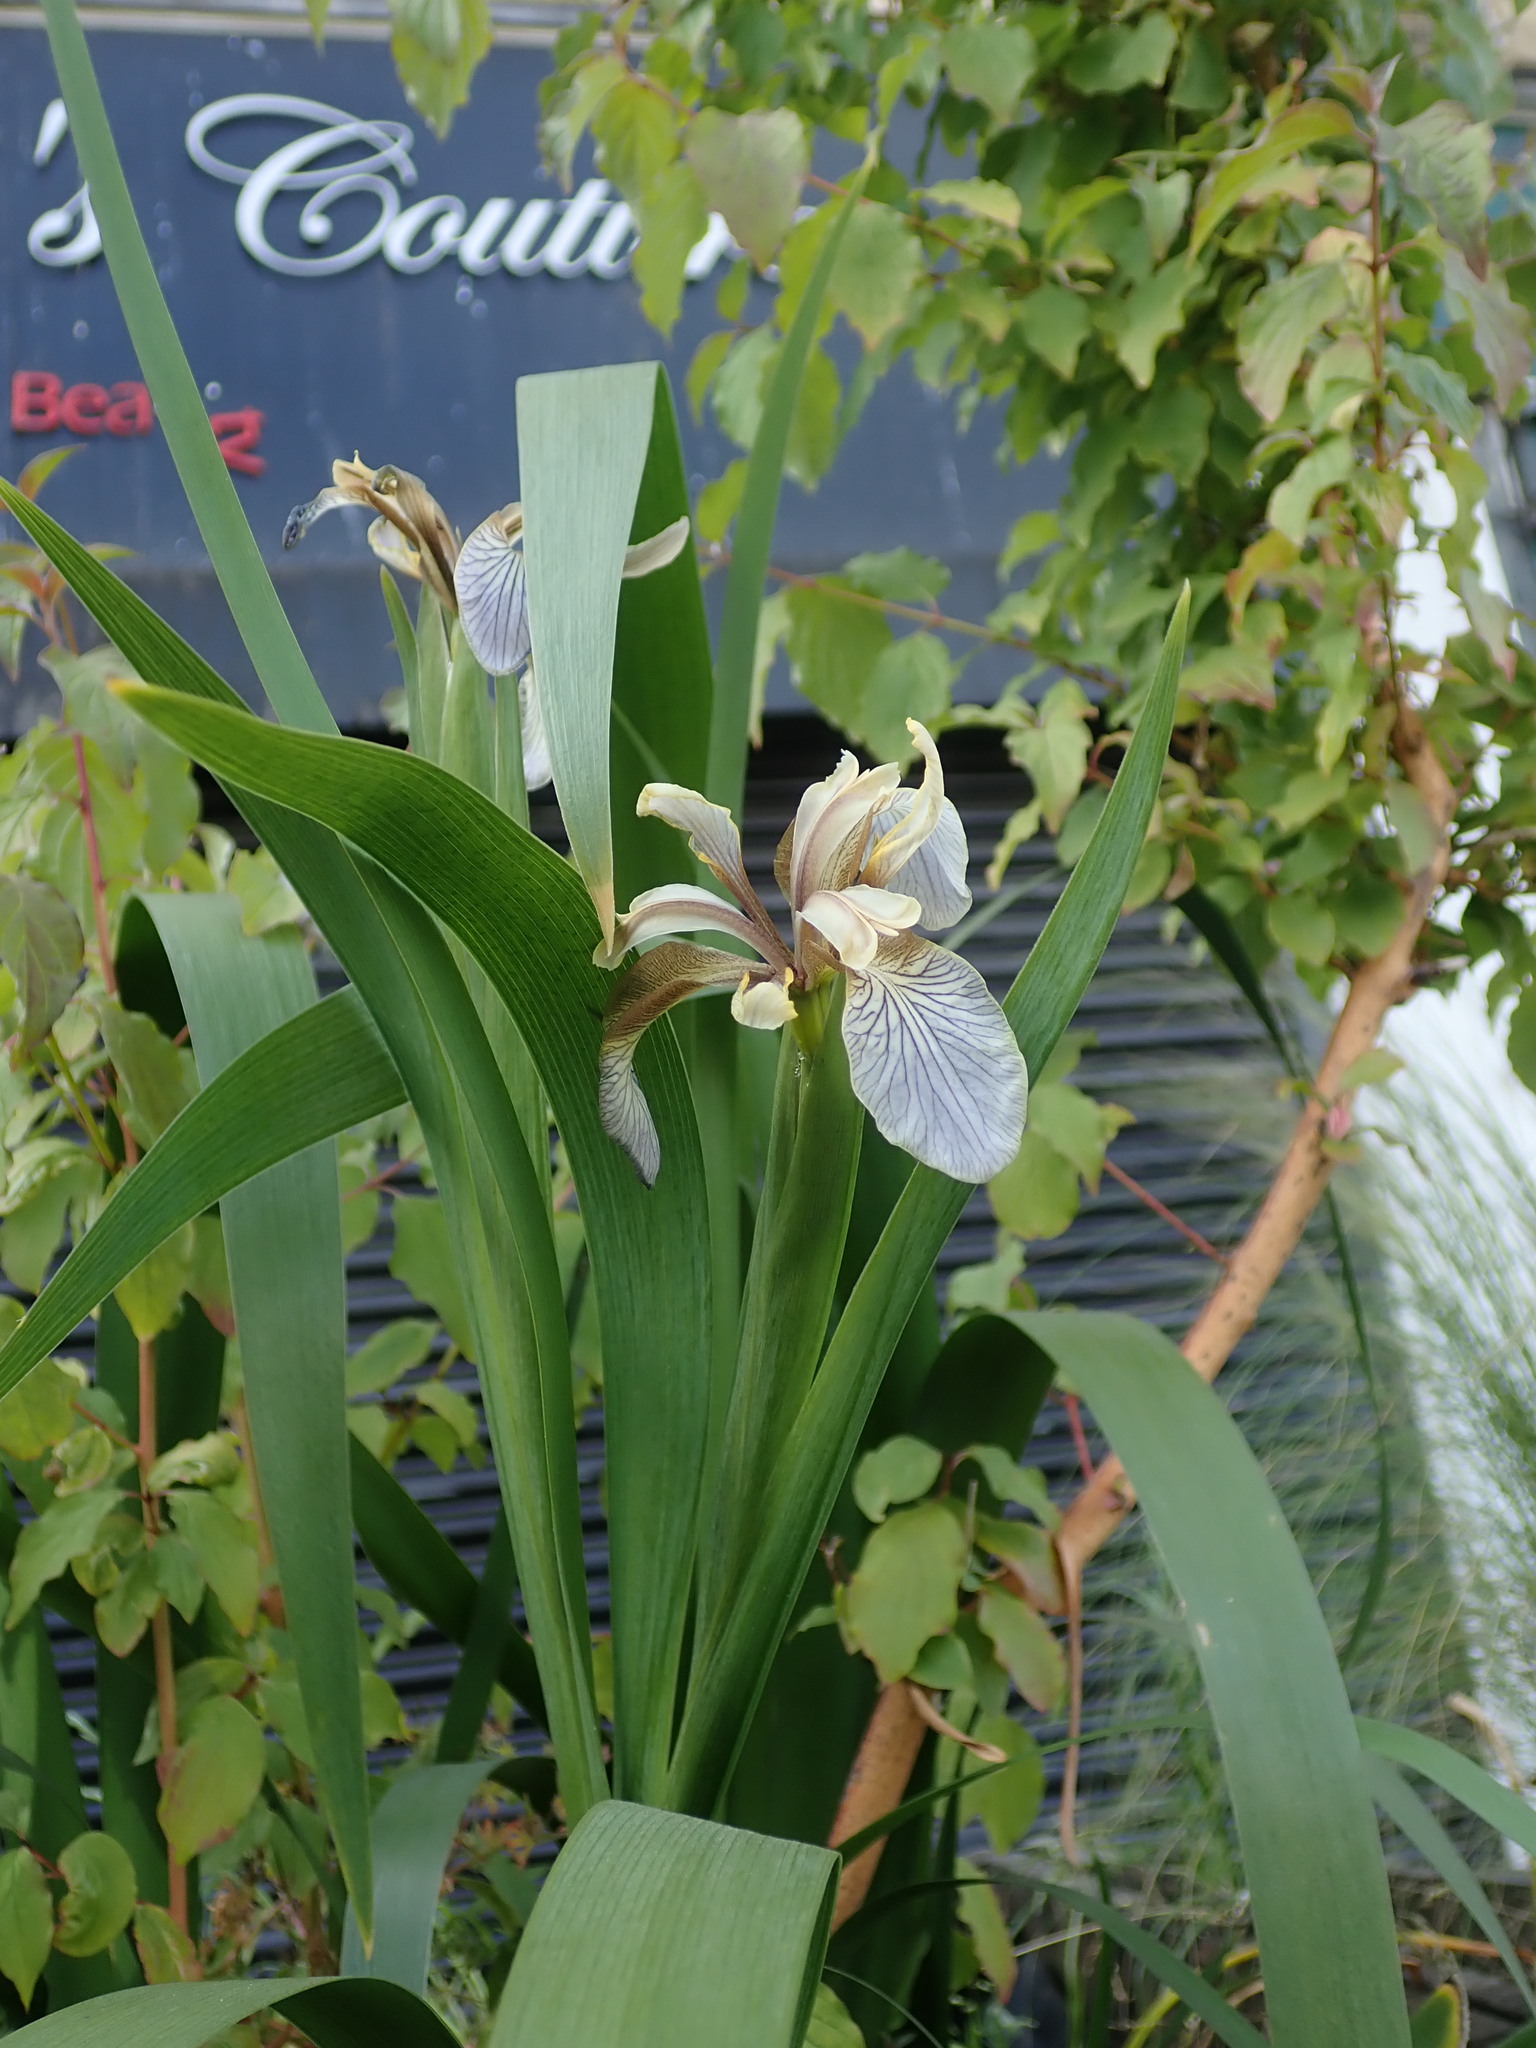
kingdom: Plantae
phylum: Tracheophyta
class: Liliopsida
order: Asparagales
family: Iridaceae
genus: Iris
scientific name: Iris foetidissima
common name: Stinking iris
